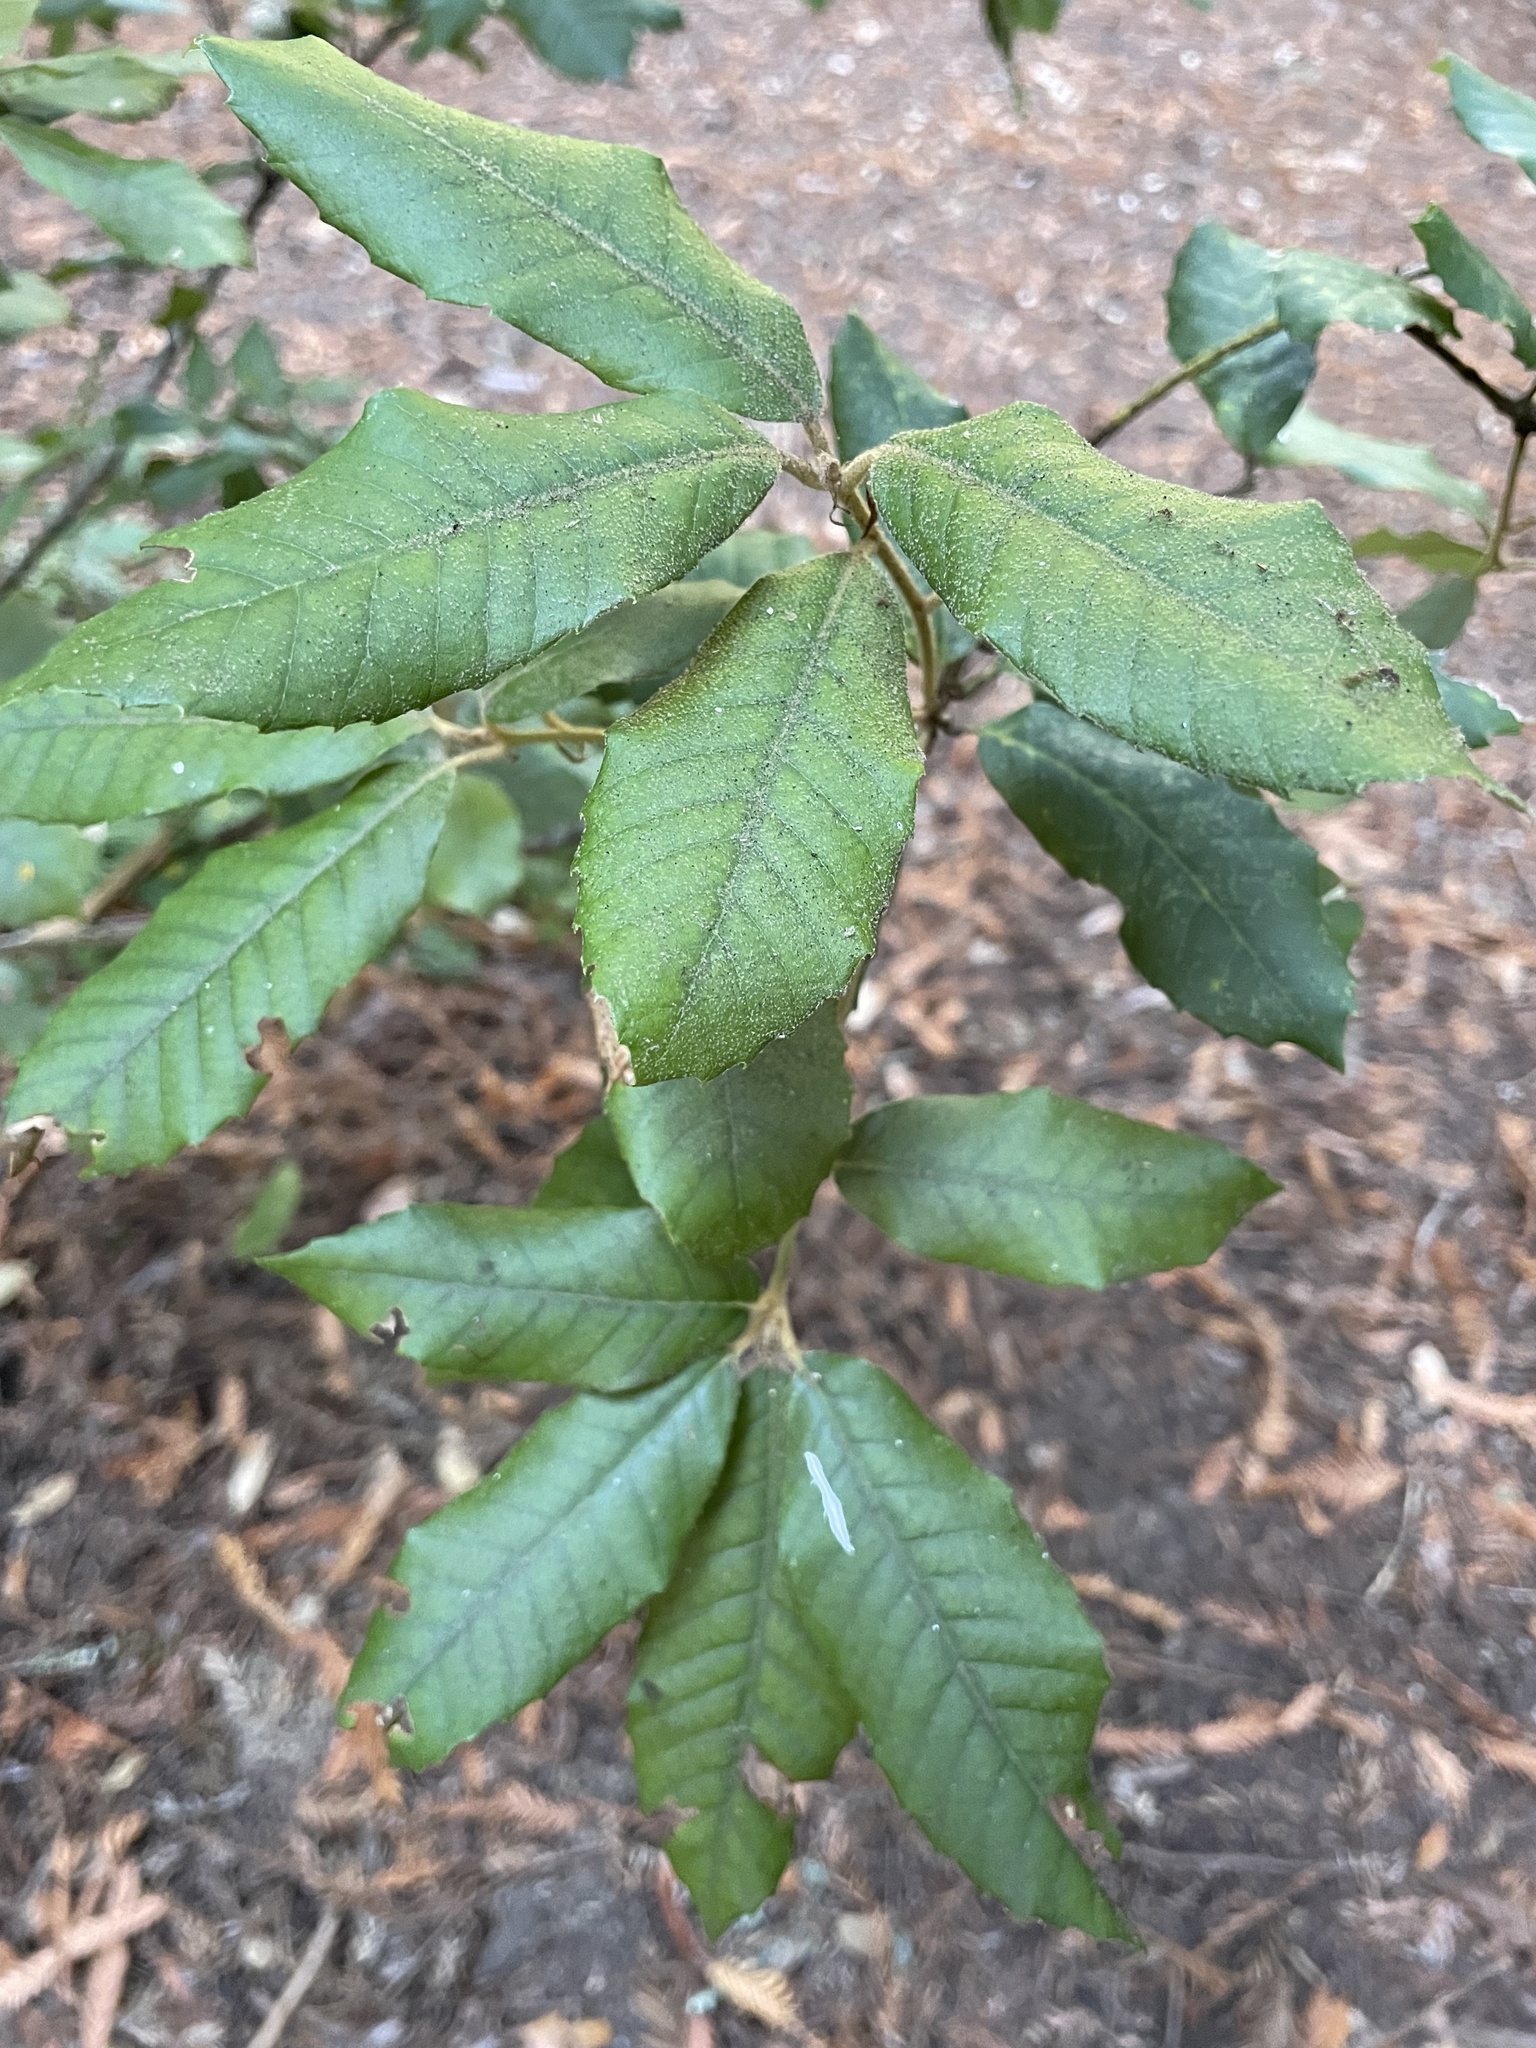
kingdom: Plantae
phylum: Tracheophyta
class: Magnoliopsida
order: Fagales
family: Fagaceae
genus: Notholithocarpus
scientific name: Notholithocarpus densiflorus
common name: Tan bark oak
